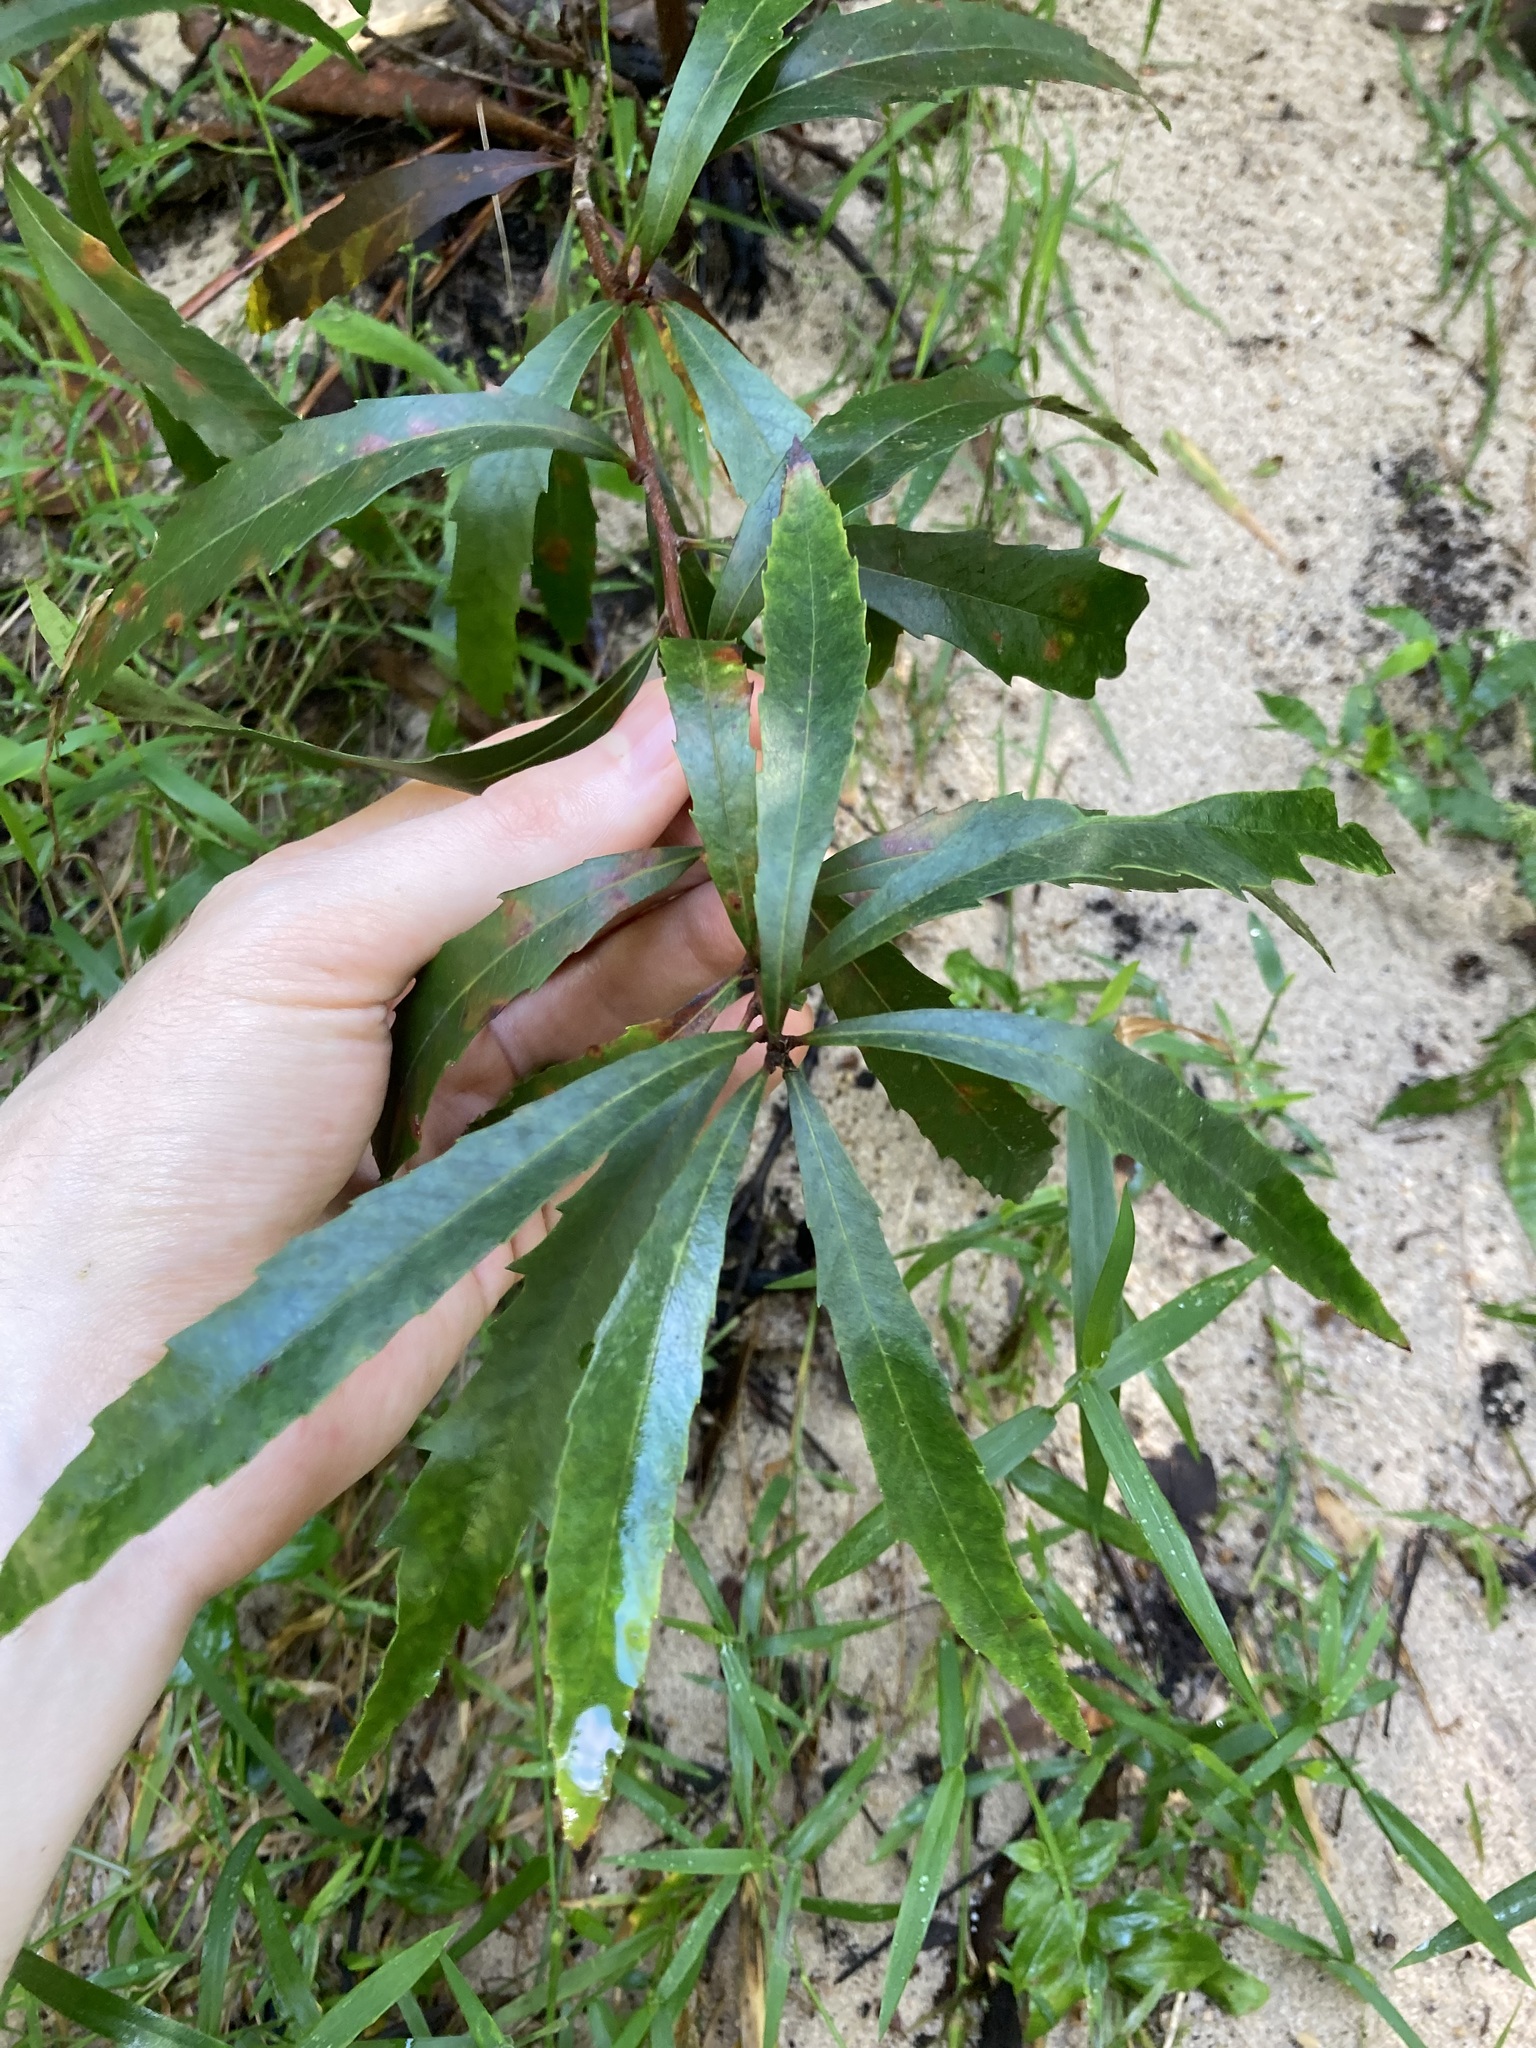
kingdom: Plantae
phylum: Tracheophyta
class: Magnoliopsida
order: Proteales
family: Proteaceae
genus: Lomatia
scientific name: Lomatia myricoides
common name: Longleaf lomatia
